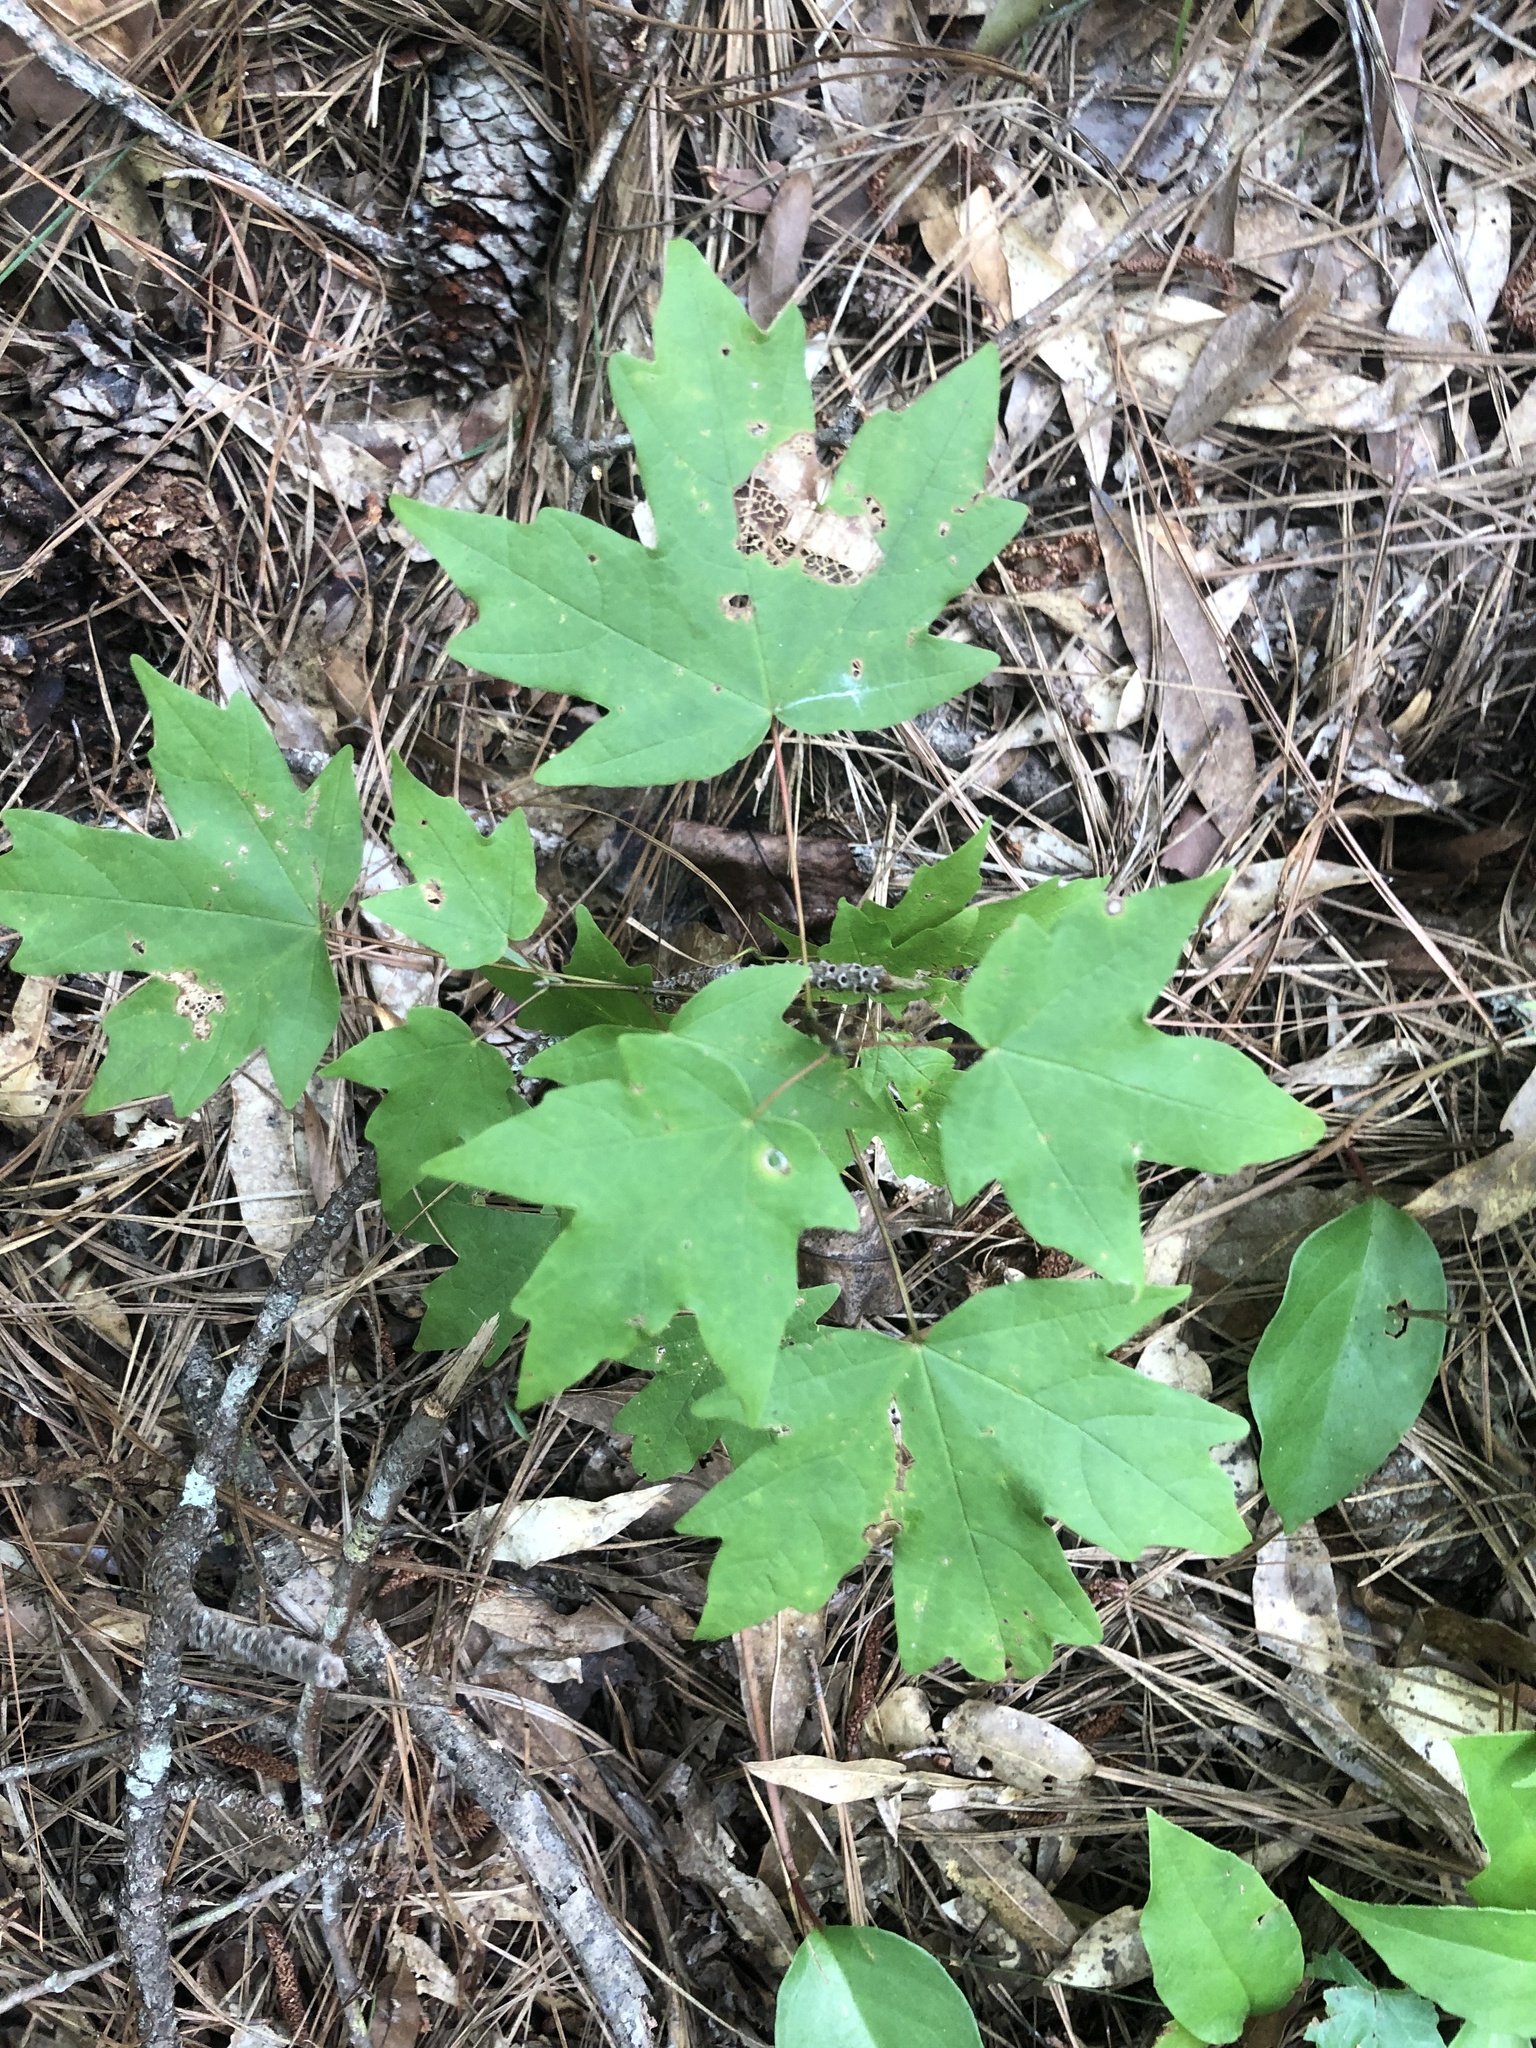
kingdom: Plantae
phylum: Tracheophyta
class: Magnoliopsida
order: Sapindales
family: Sapindaceae
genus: Acer
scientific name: Acer floridanum
